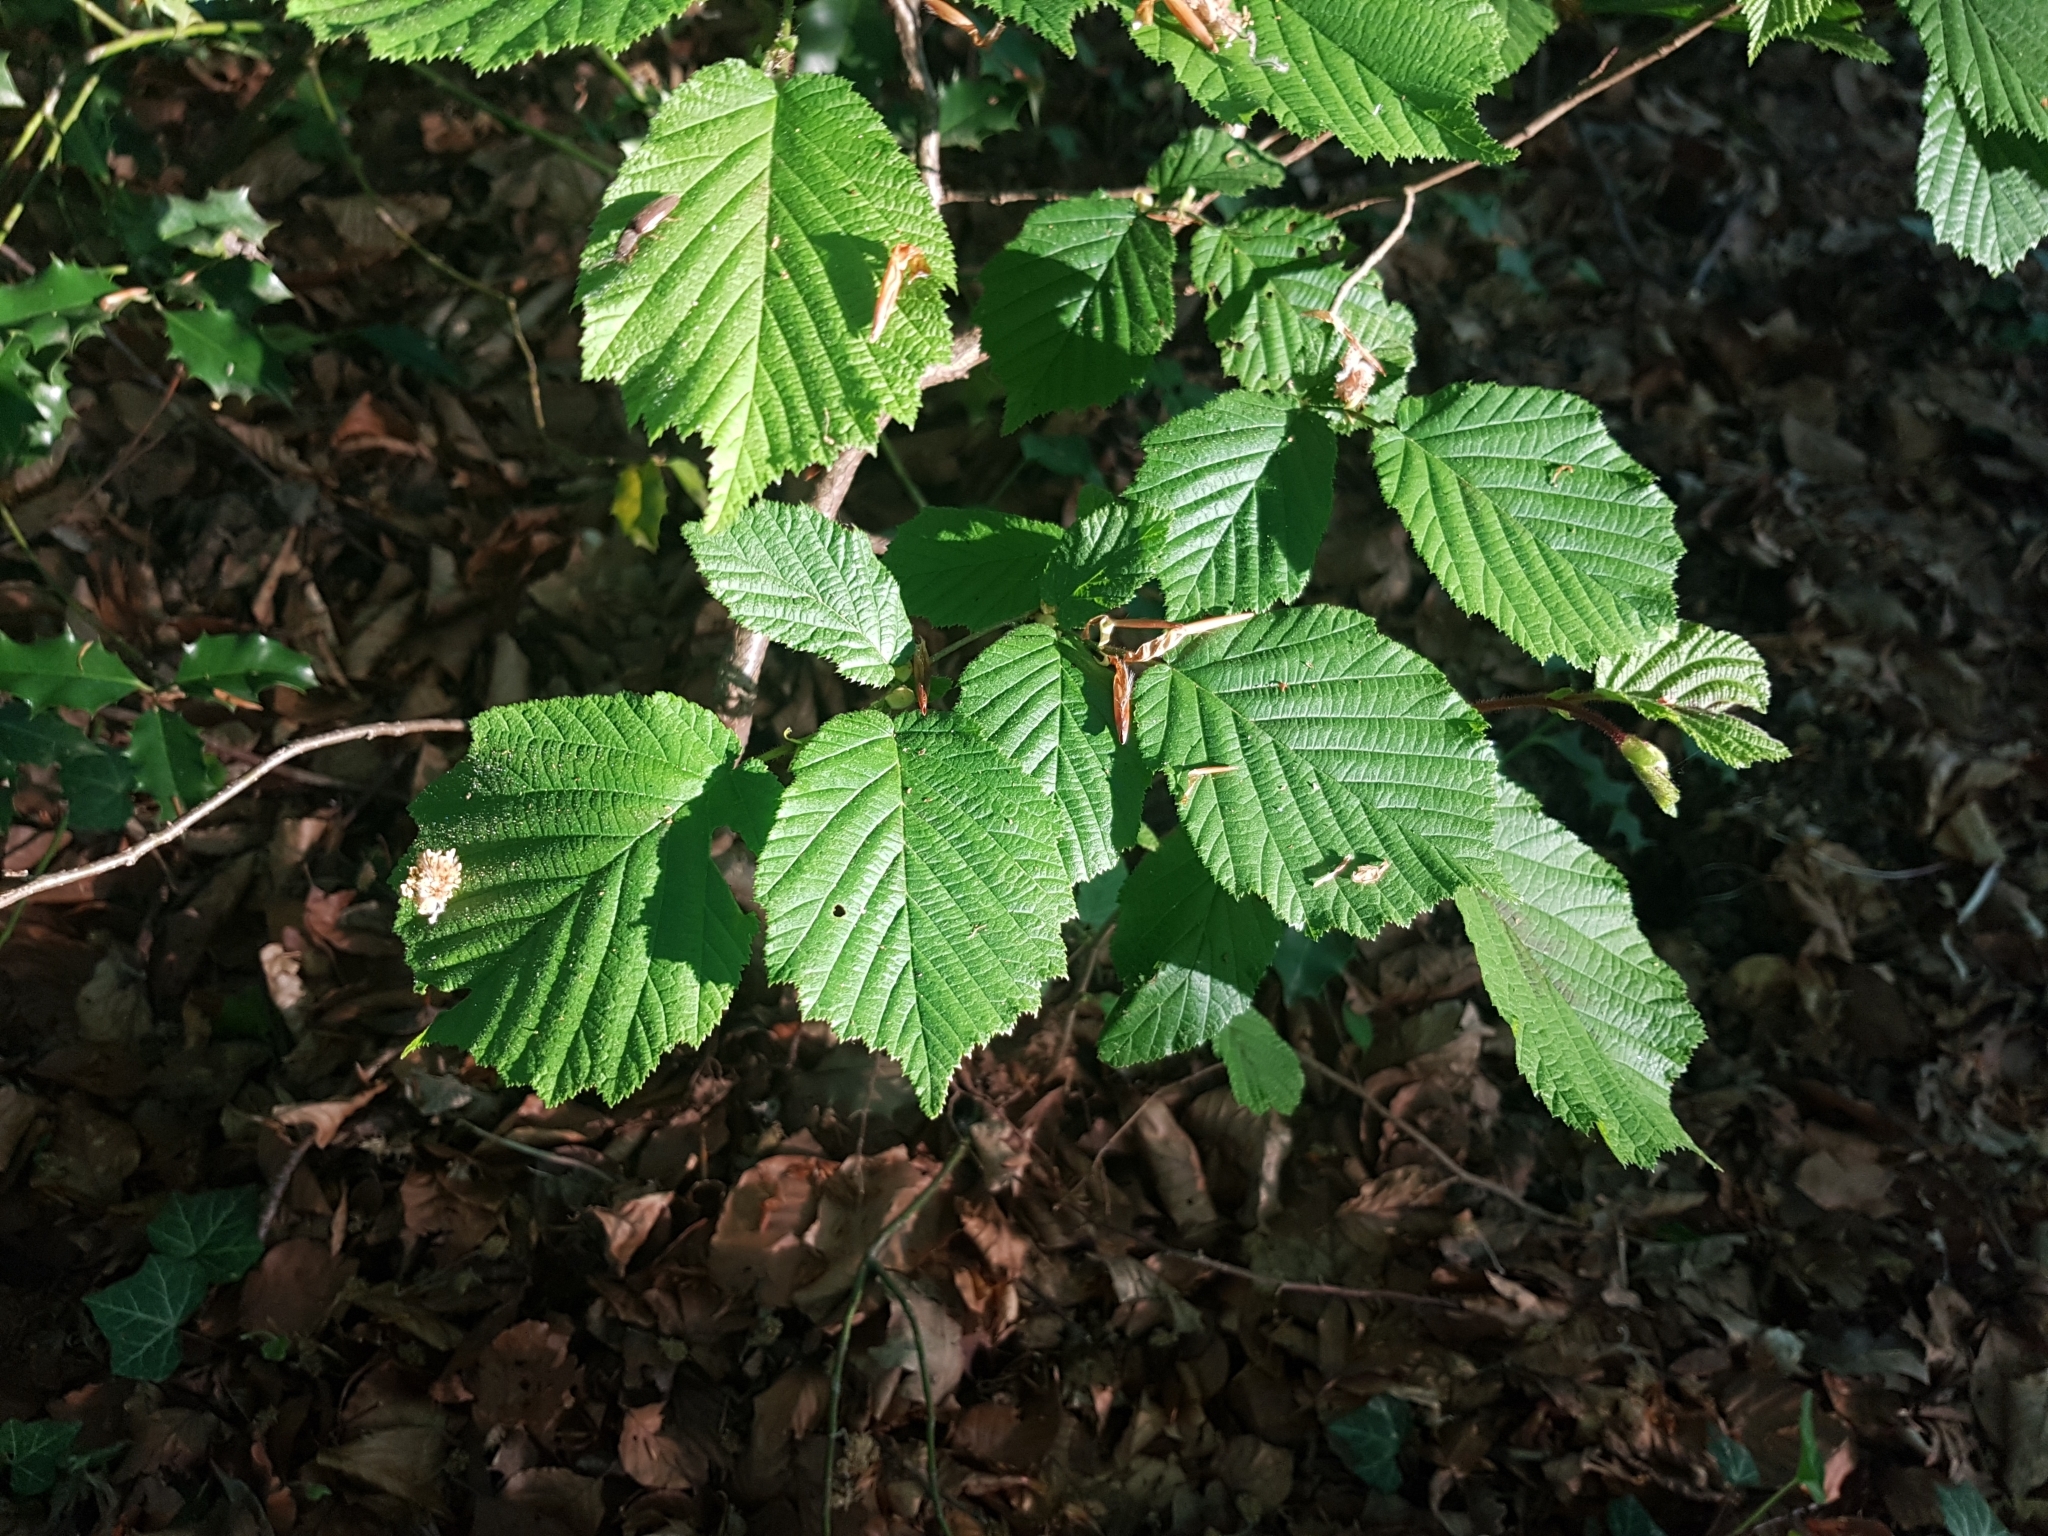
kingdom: Plantae
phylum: Tracheophyta
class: Magnoliopsida
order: Fagales
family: Betulaceae
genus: Corylus
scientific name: Corylus avellana
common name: European hazel
